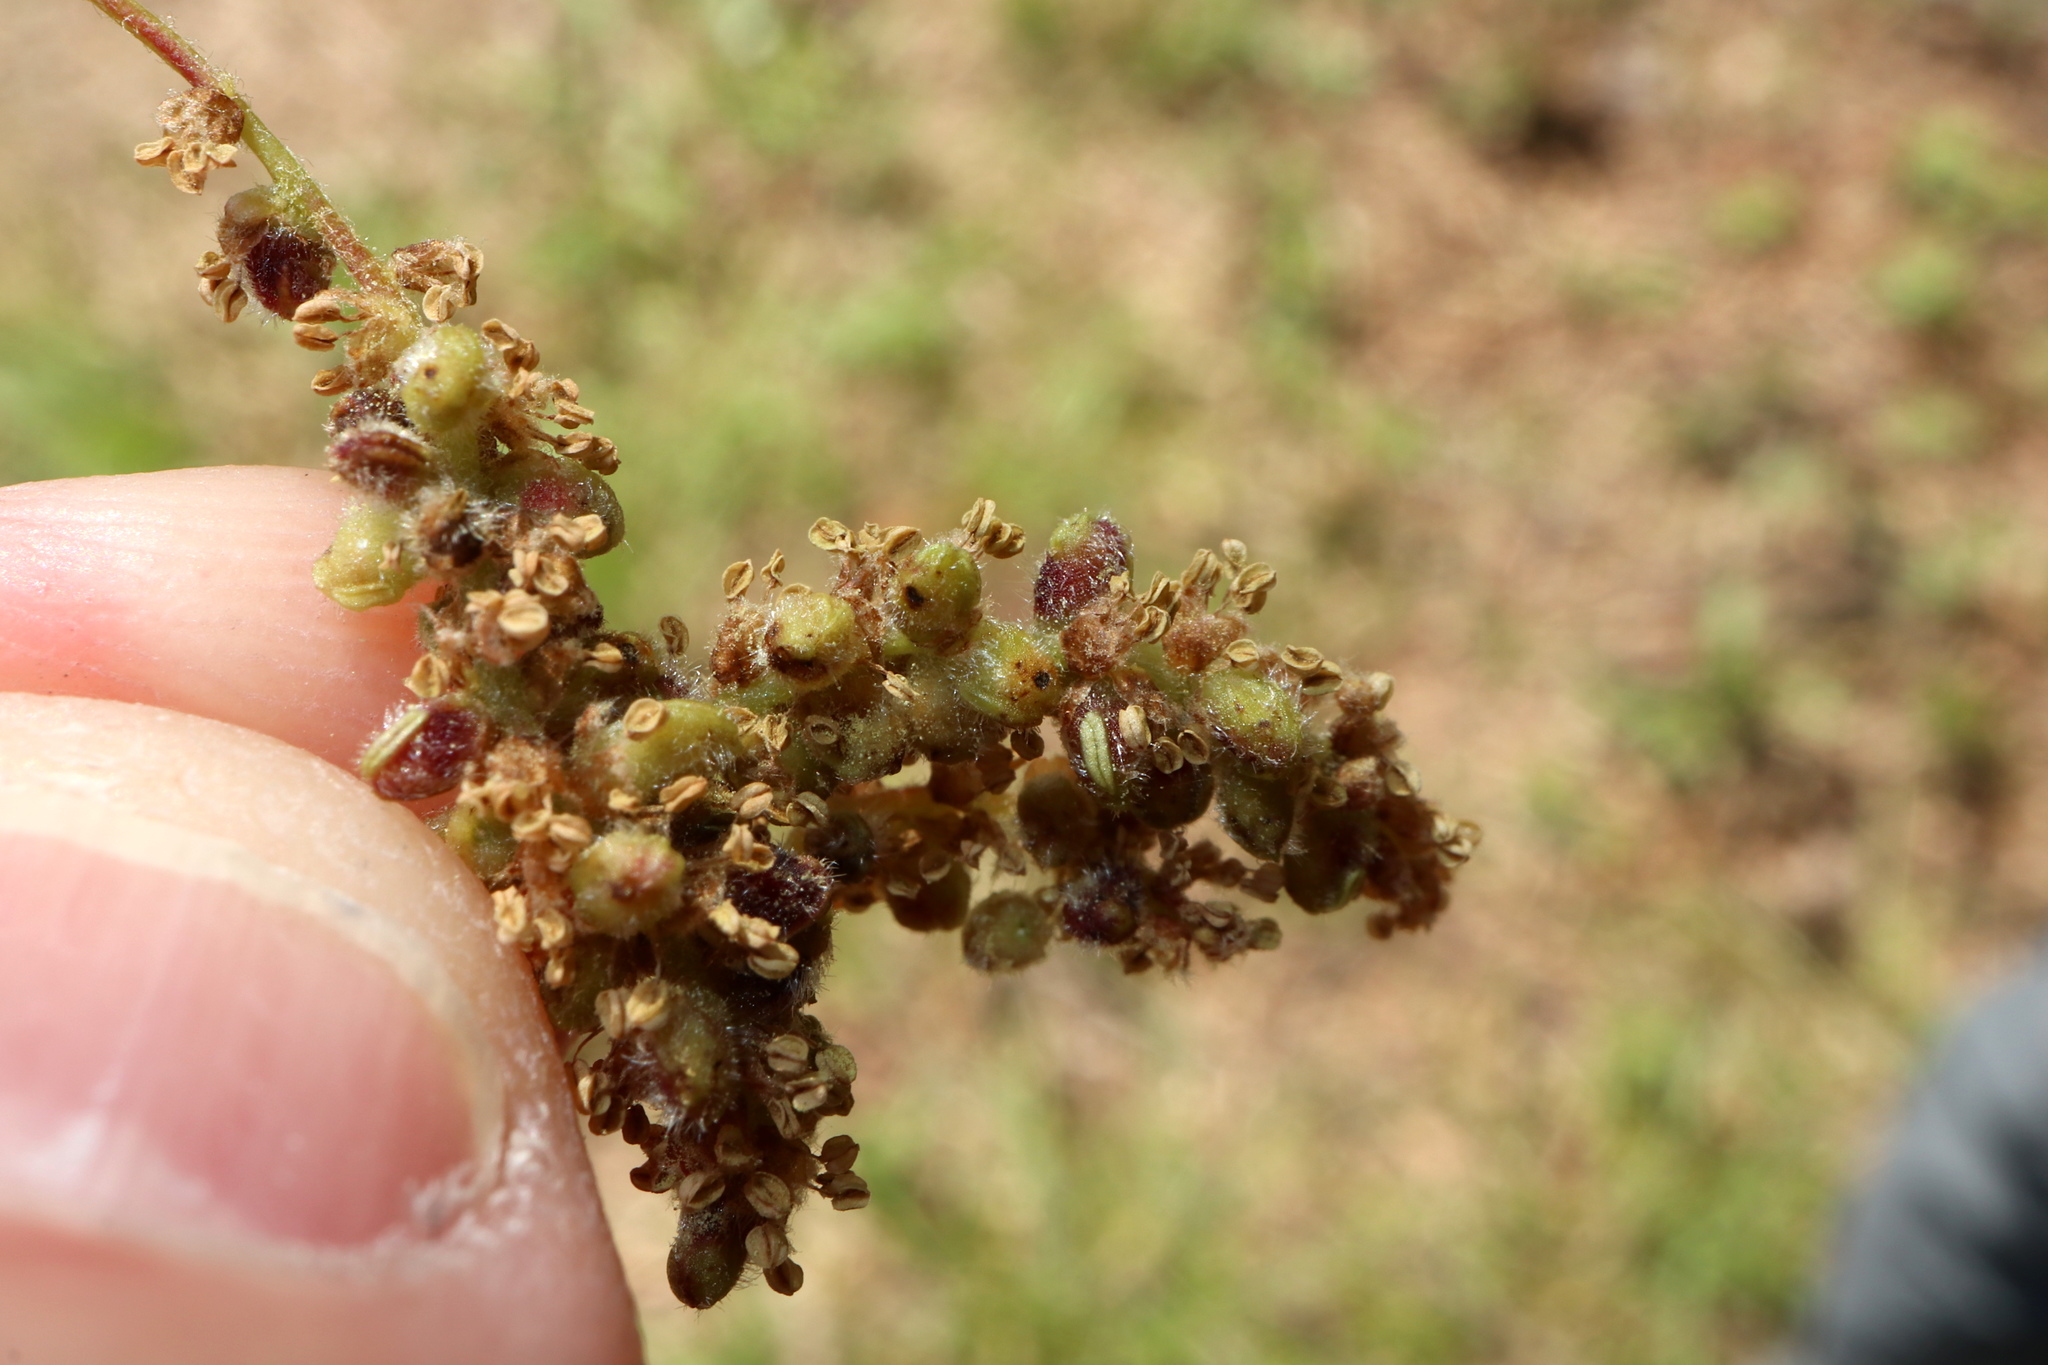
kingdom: Animalia
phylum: Arthropoda
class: Insecta
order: Hymenoptera
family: Cynipidae
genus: Andricus
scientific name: Andricus cooki
